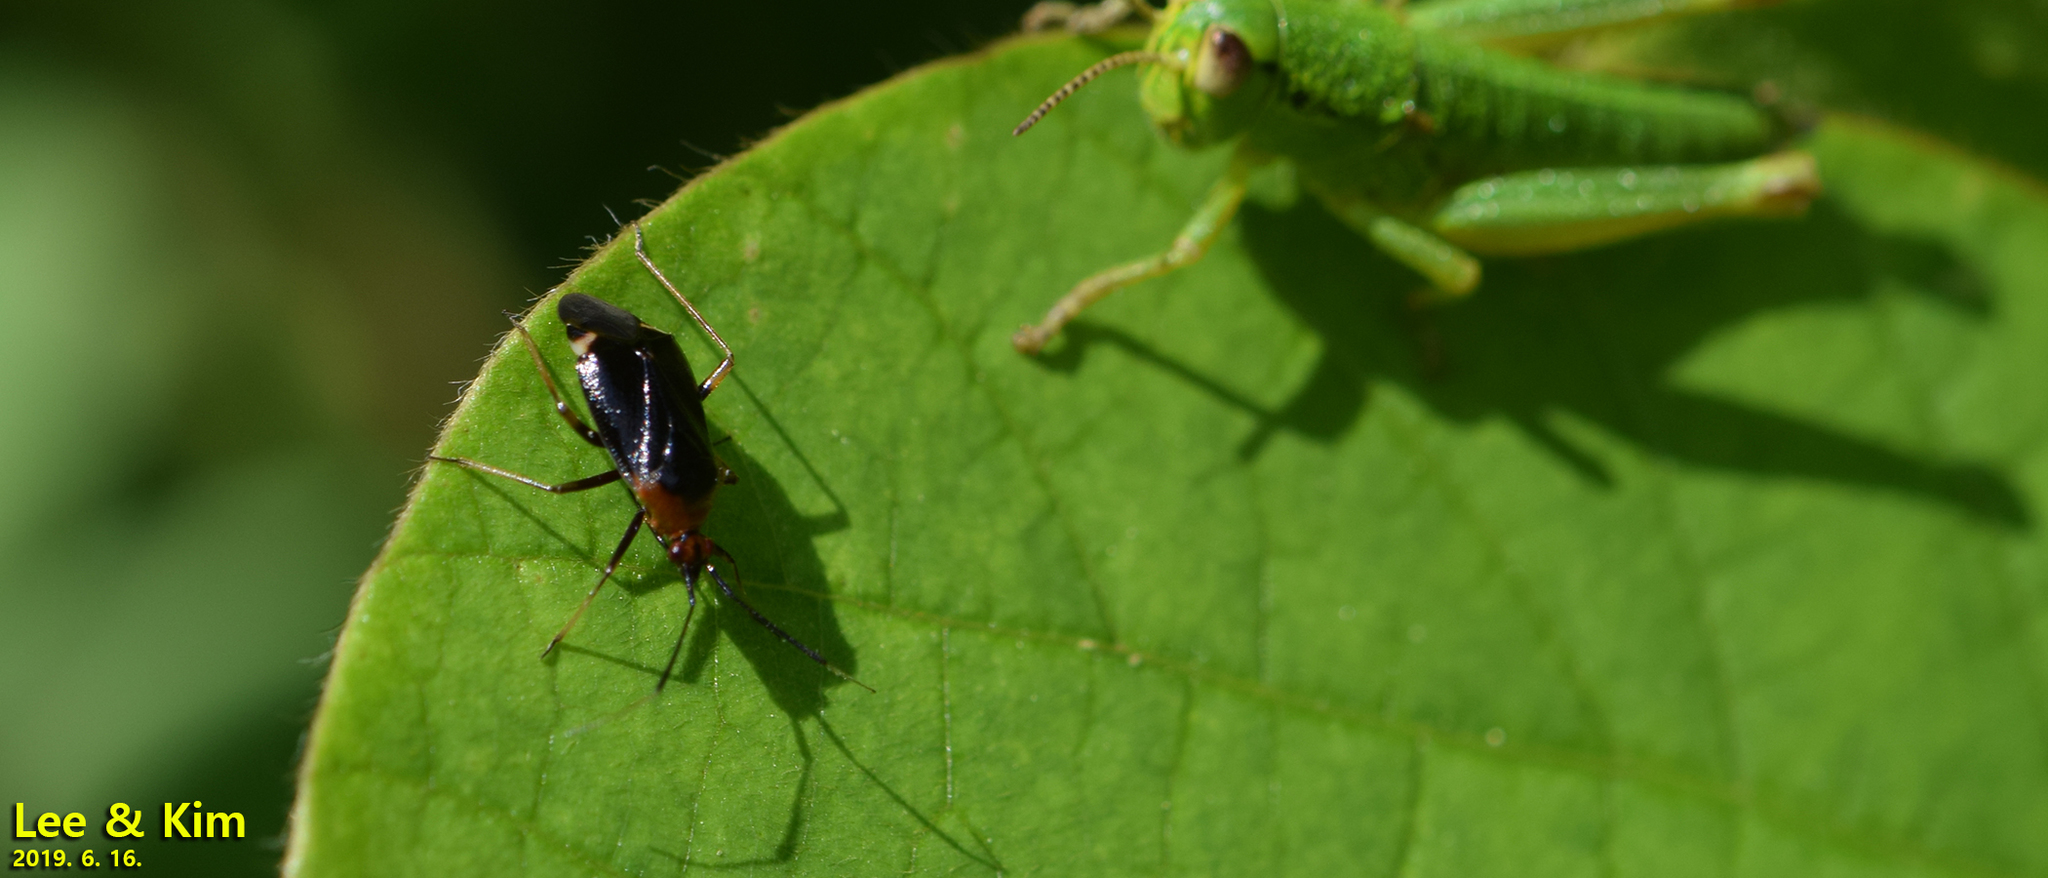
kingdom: Animalia
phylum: Arthropoda
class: Insecta
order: Hemiptera
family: Miridae
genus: Deraeocoris
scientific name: Deraeocoris ater
